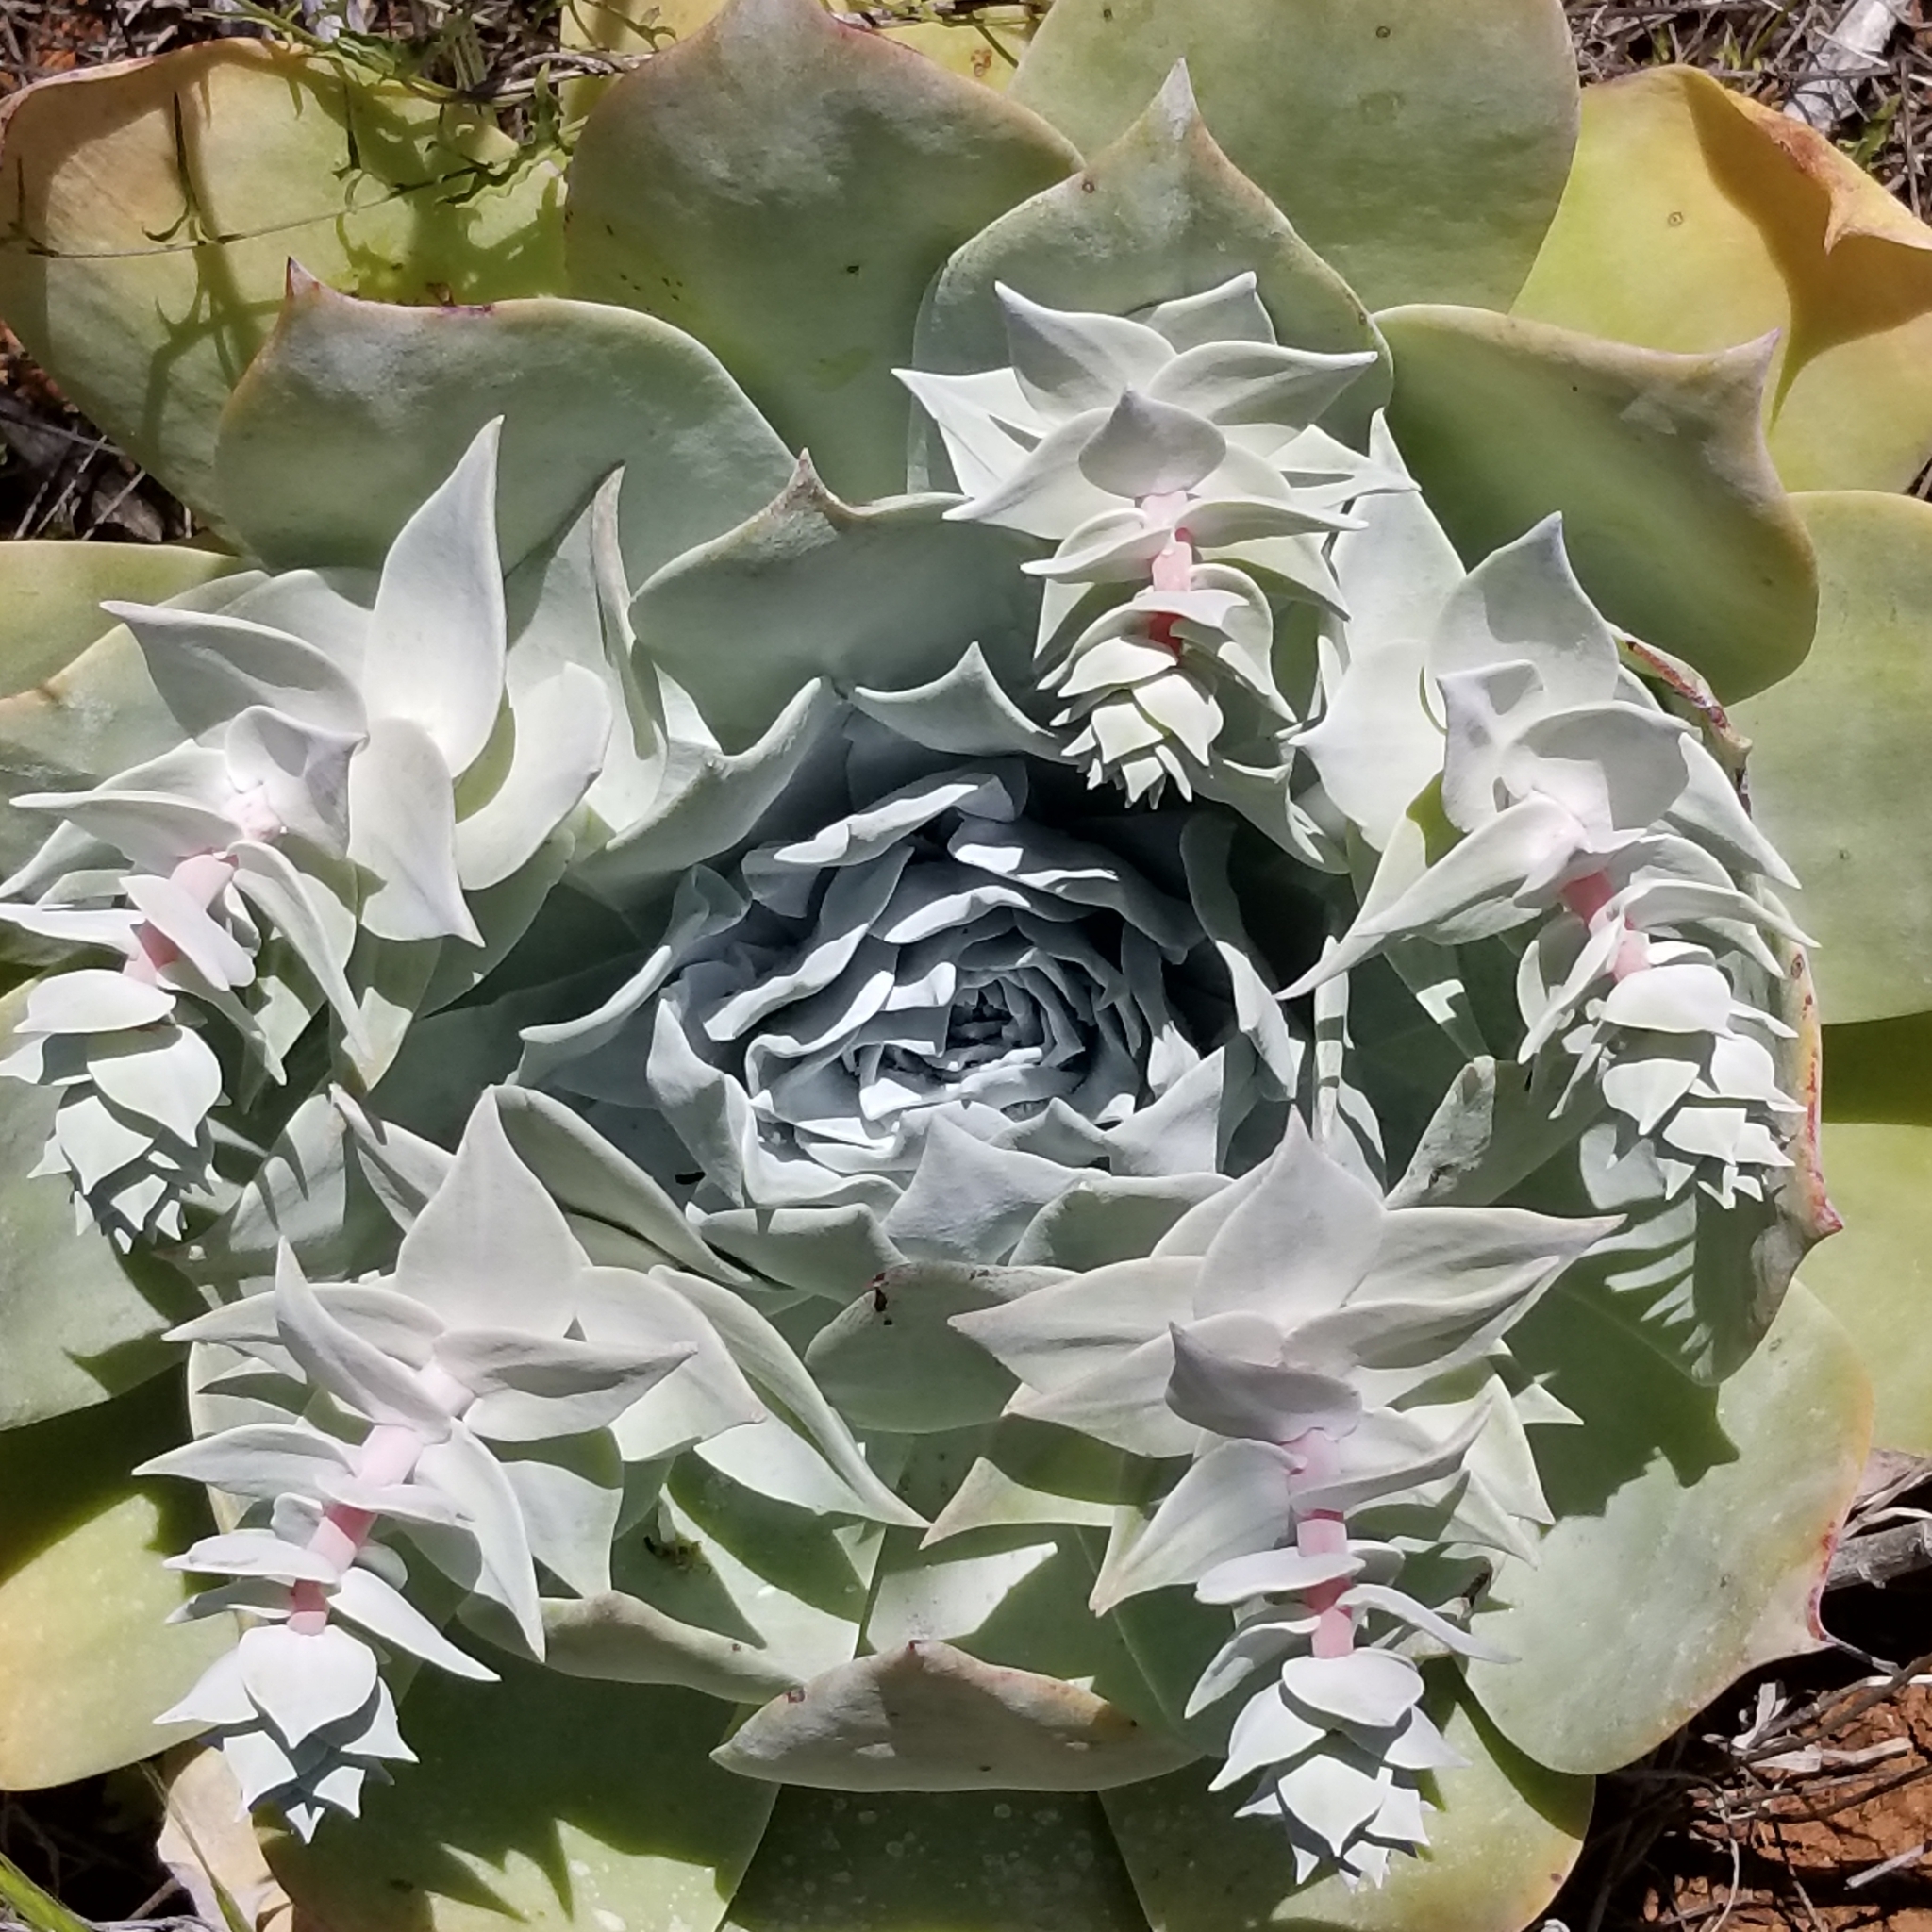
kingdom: Plantae
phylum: Tracheophyta
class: Magnoliopsida
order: Saxifragales
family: Crassulaceae
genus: Dudleya
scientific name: Dudleya pulverulenta
